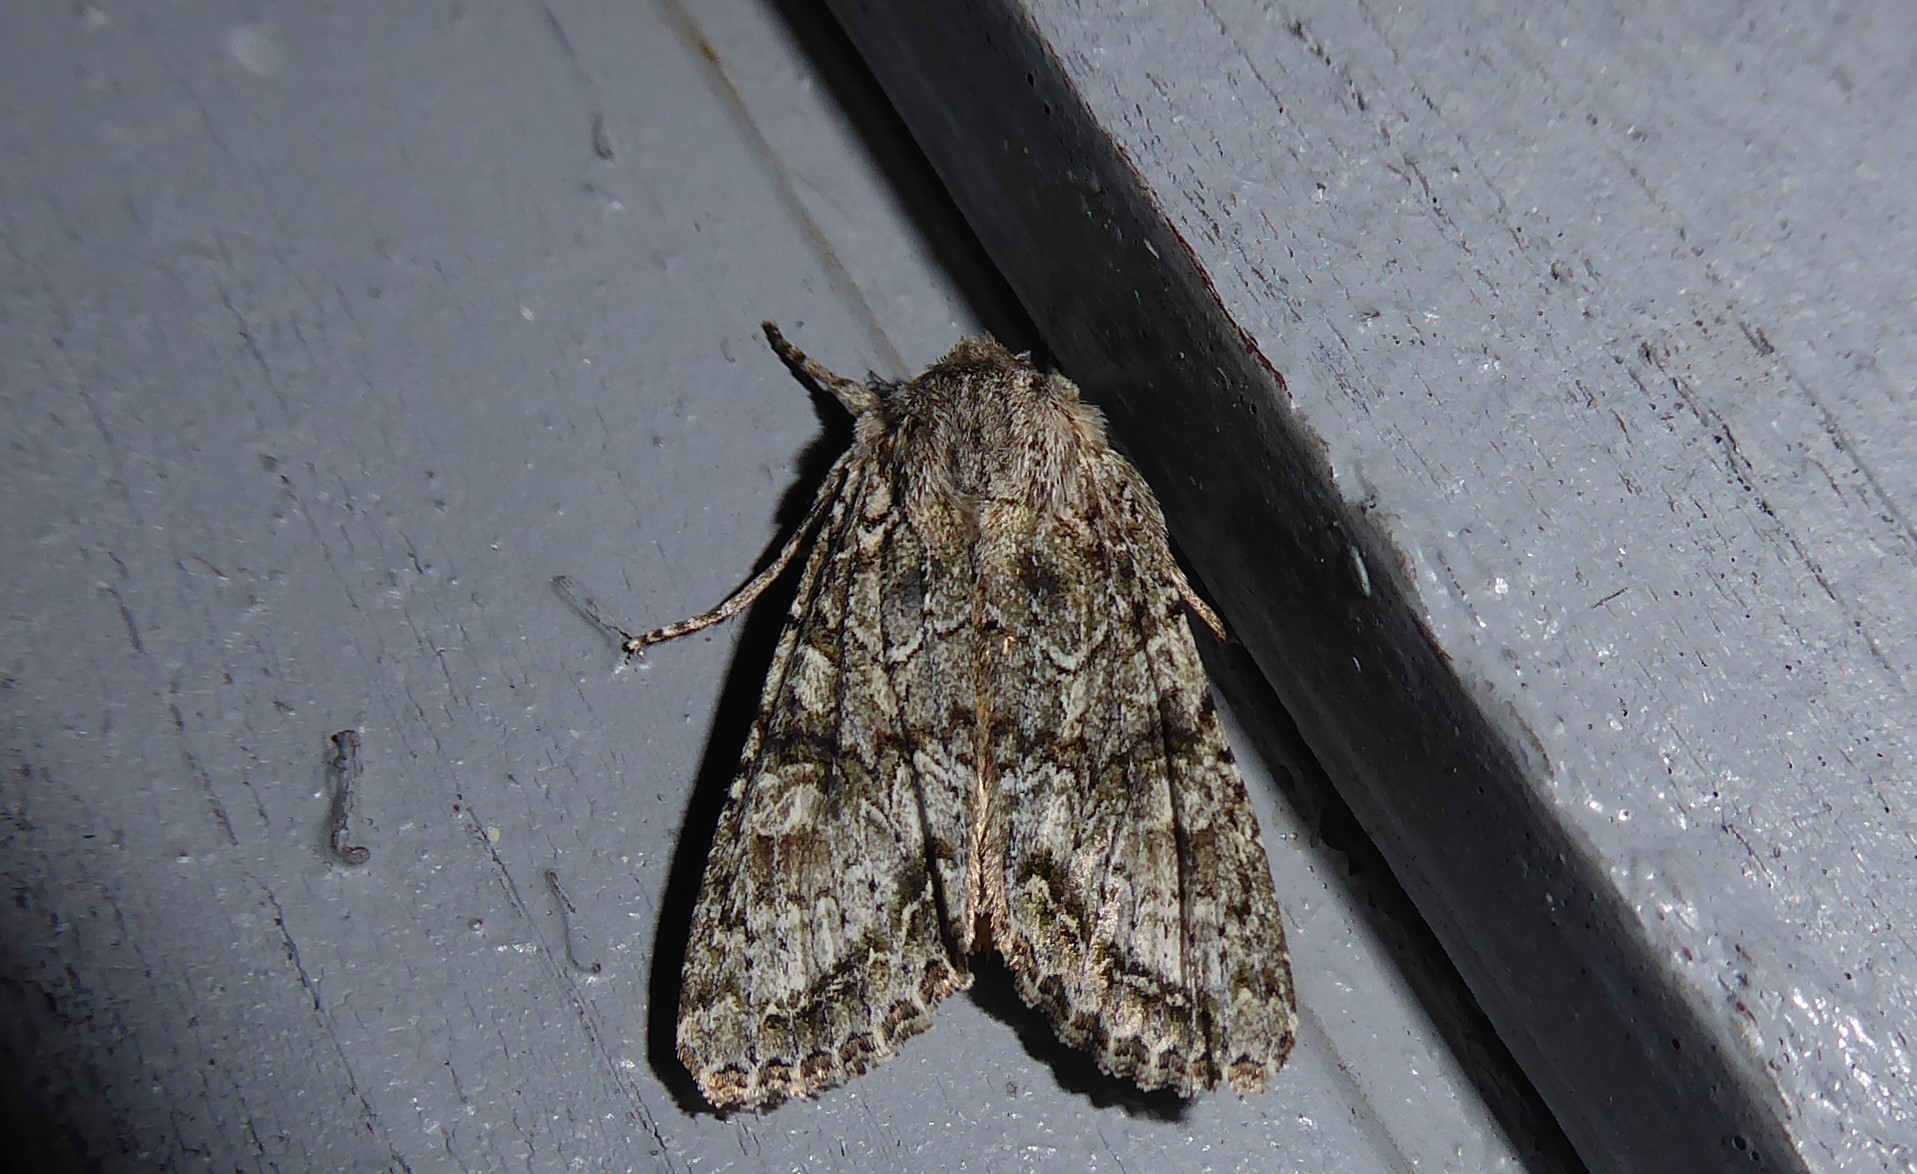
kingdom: Animalia
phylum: Arthropoda
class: Insecta
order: Lepidoptera
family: Noctuidae
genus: Ichneutica
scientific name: Ichneutica mutans
